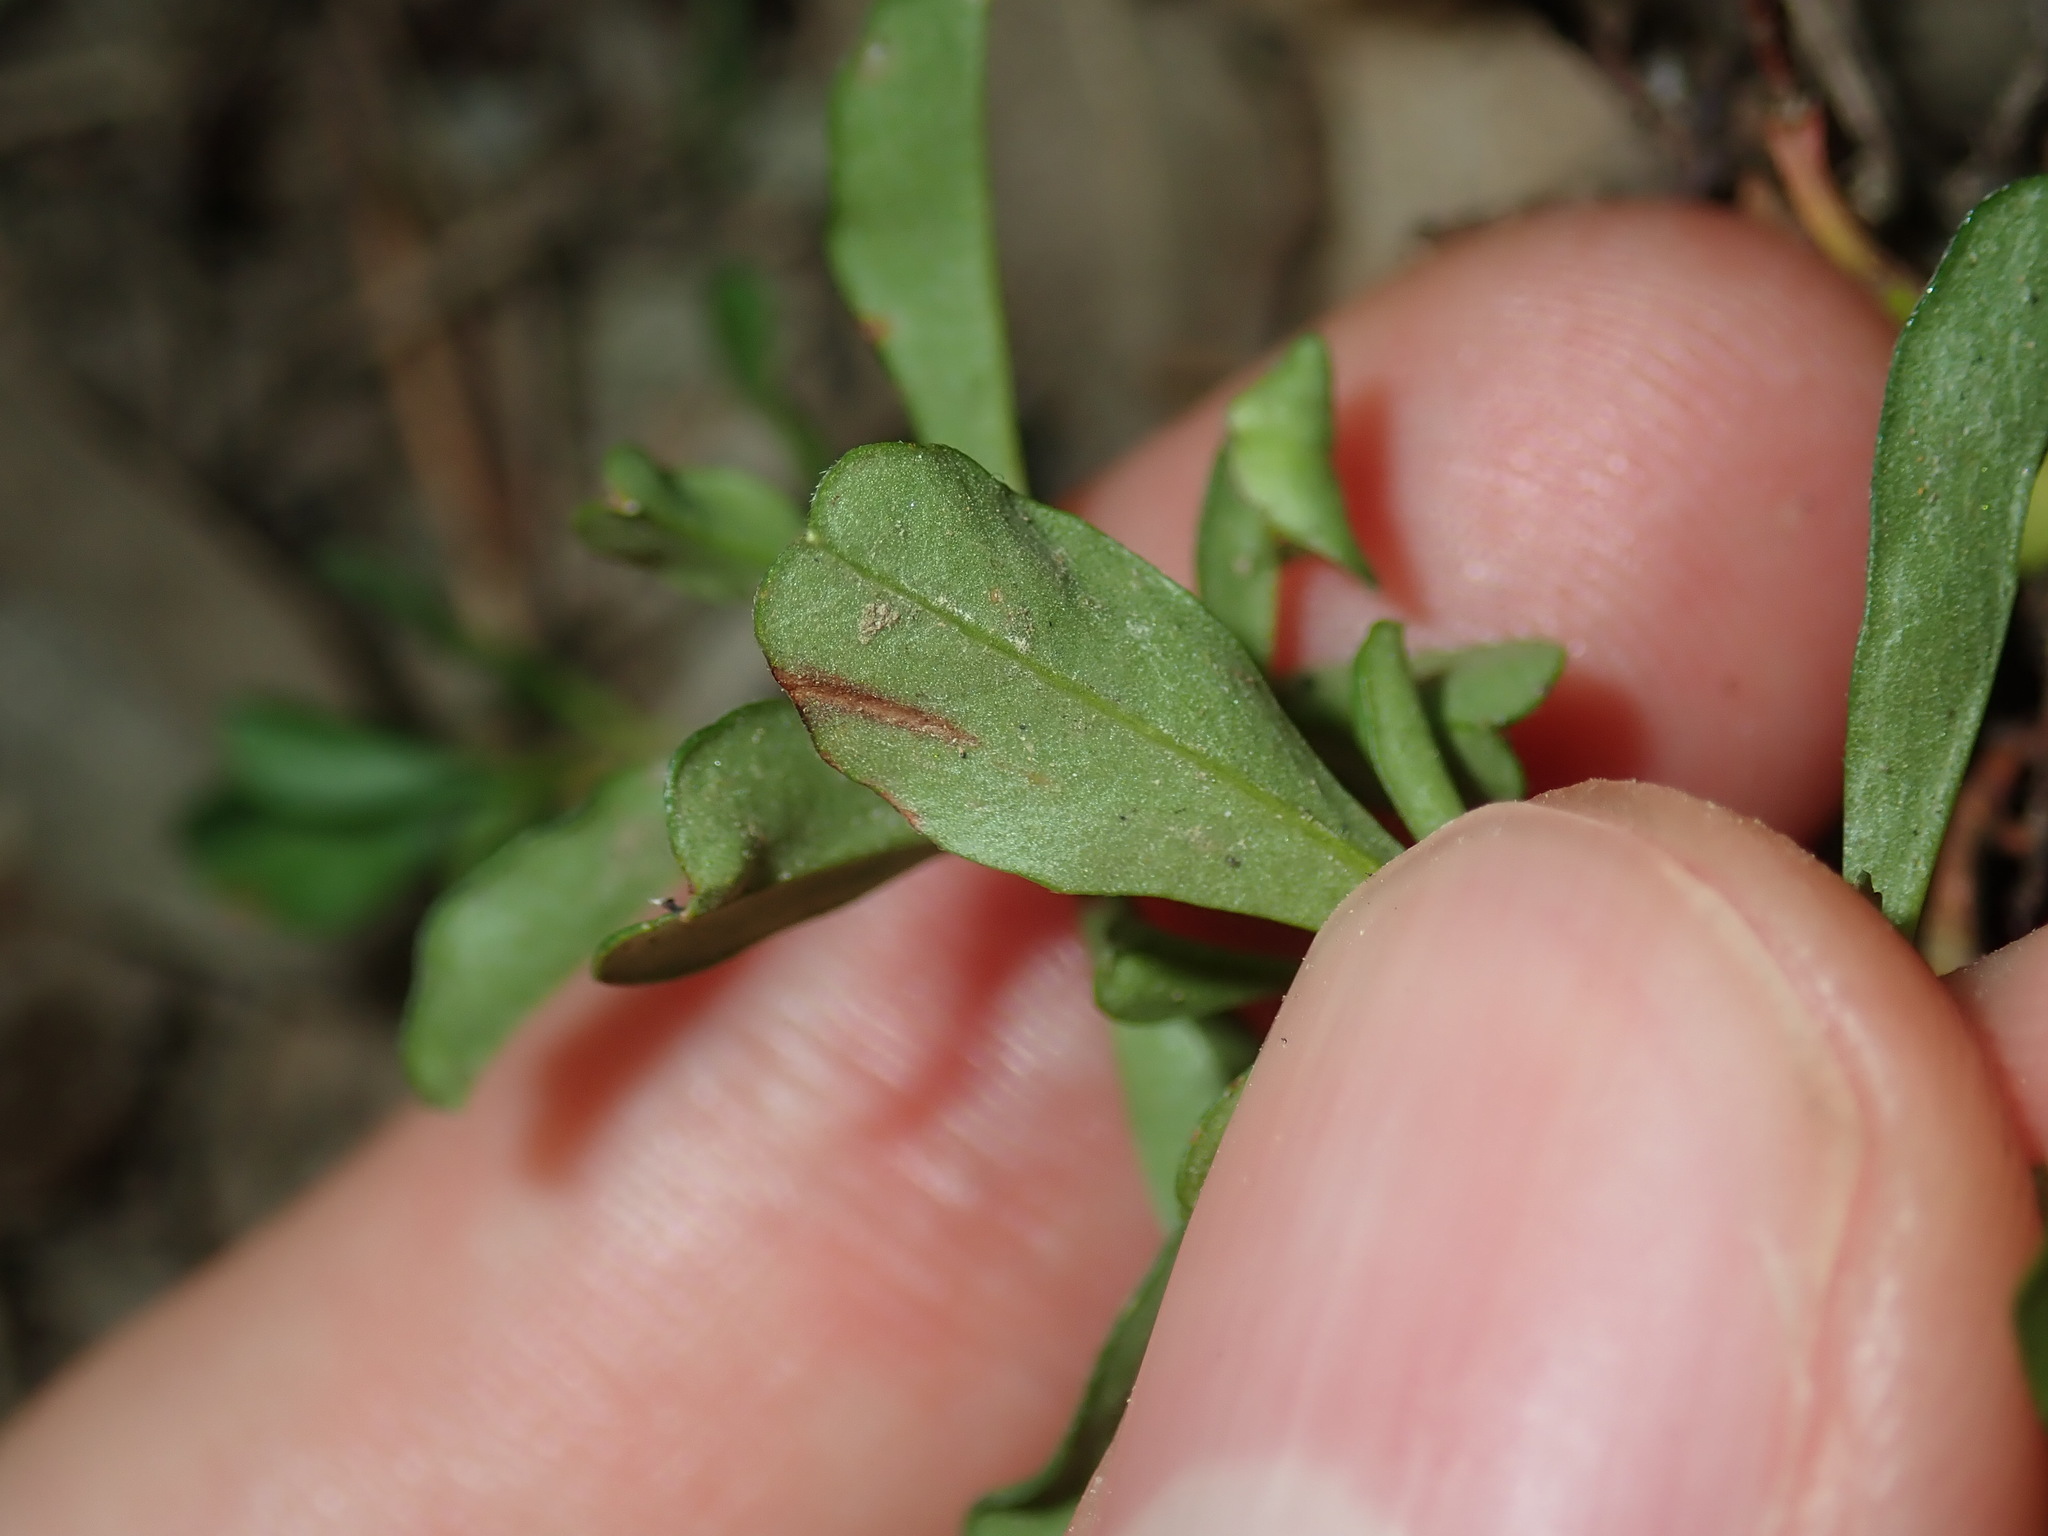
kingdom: Plantae
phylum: Tracheophyta
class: Magnoliopsida
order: Dilleniales
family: Dilleniaceae
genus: Hibbertia
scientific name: Hibbertia diffusa
